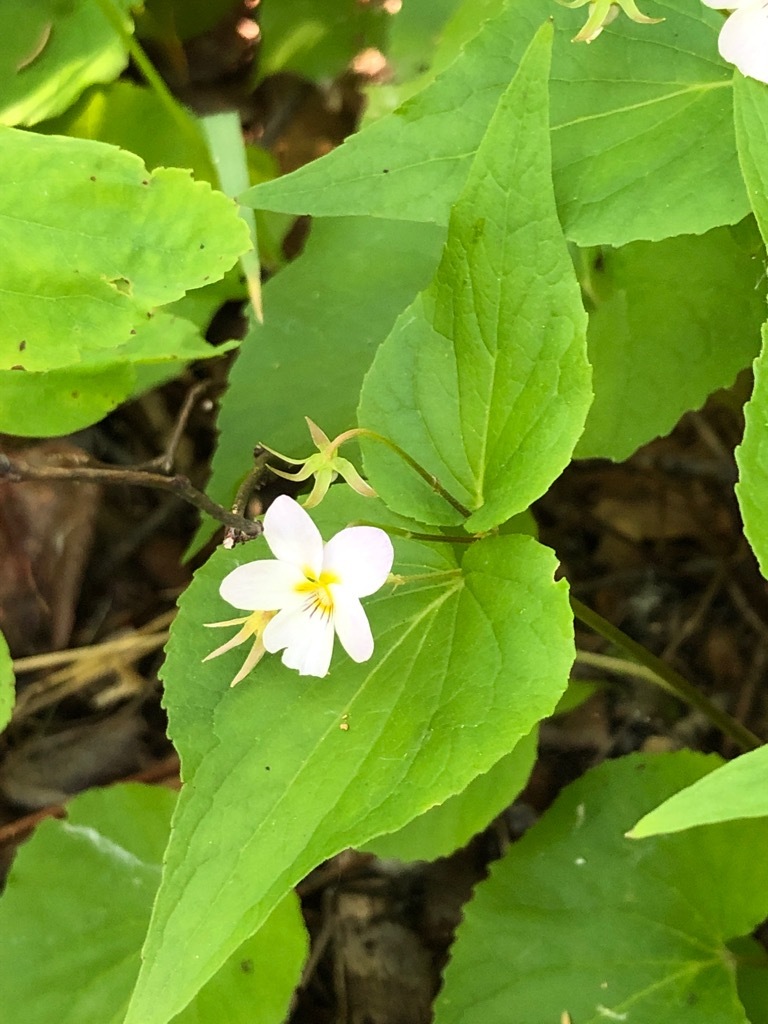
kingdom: Plantae
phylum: Tracheophyta
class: Magnoliopsida
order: Malpighiales
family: Violaceae
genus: Viola
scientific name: Viola canadensis
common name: Canada violet
